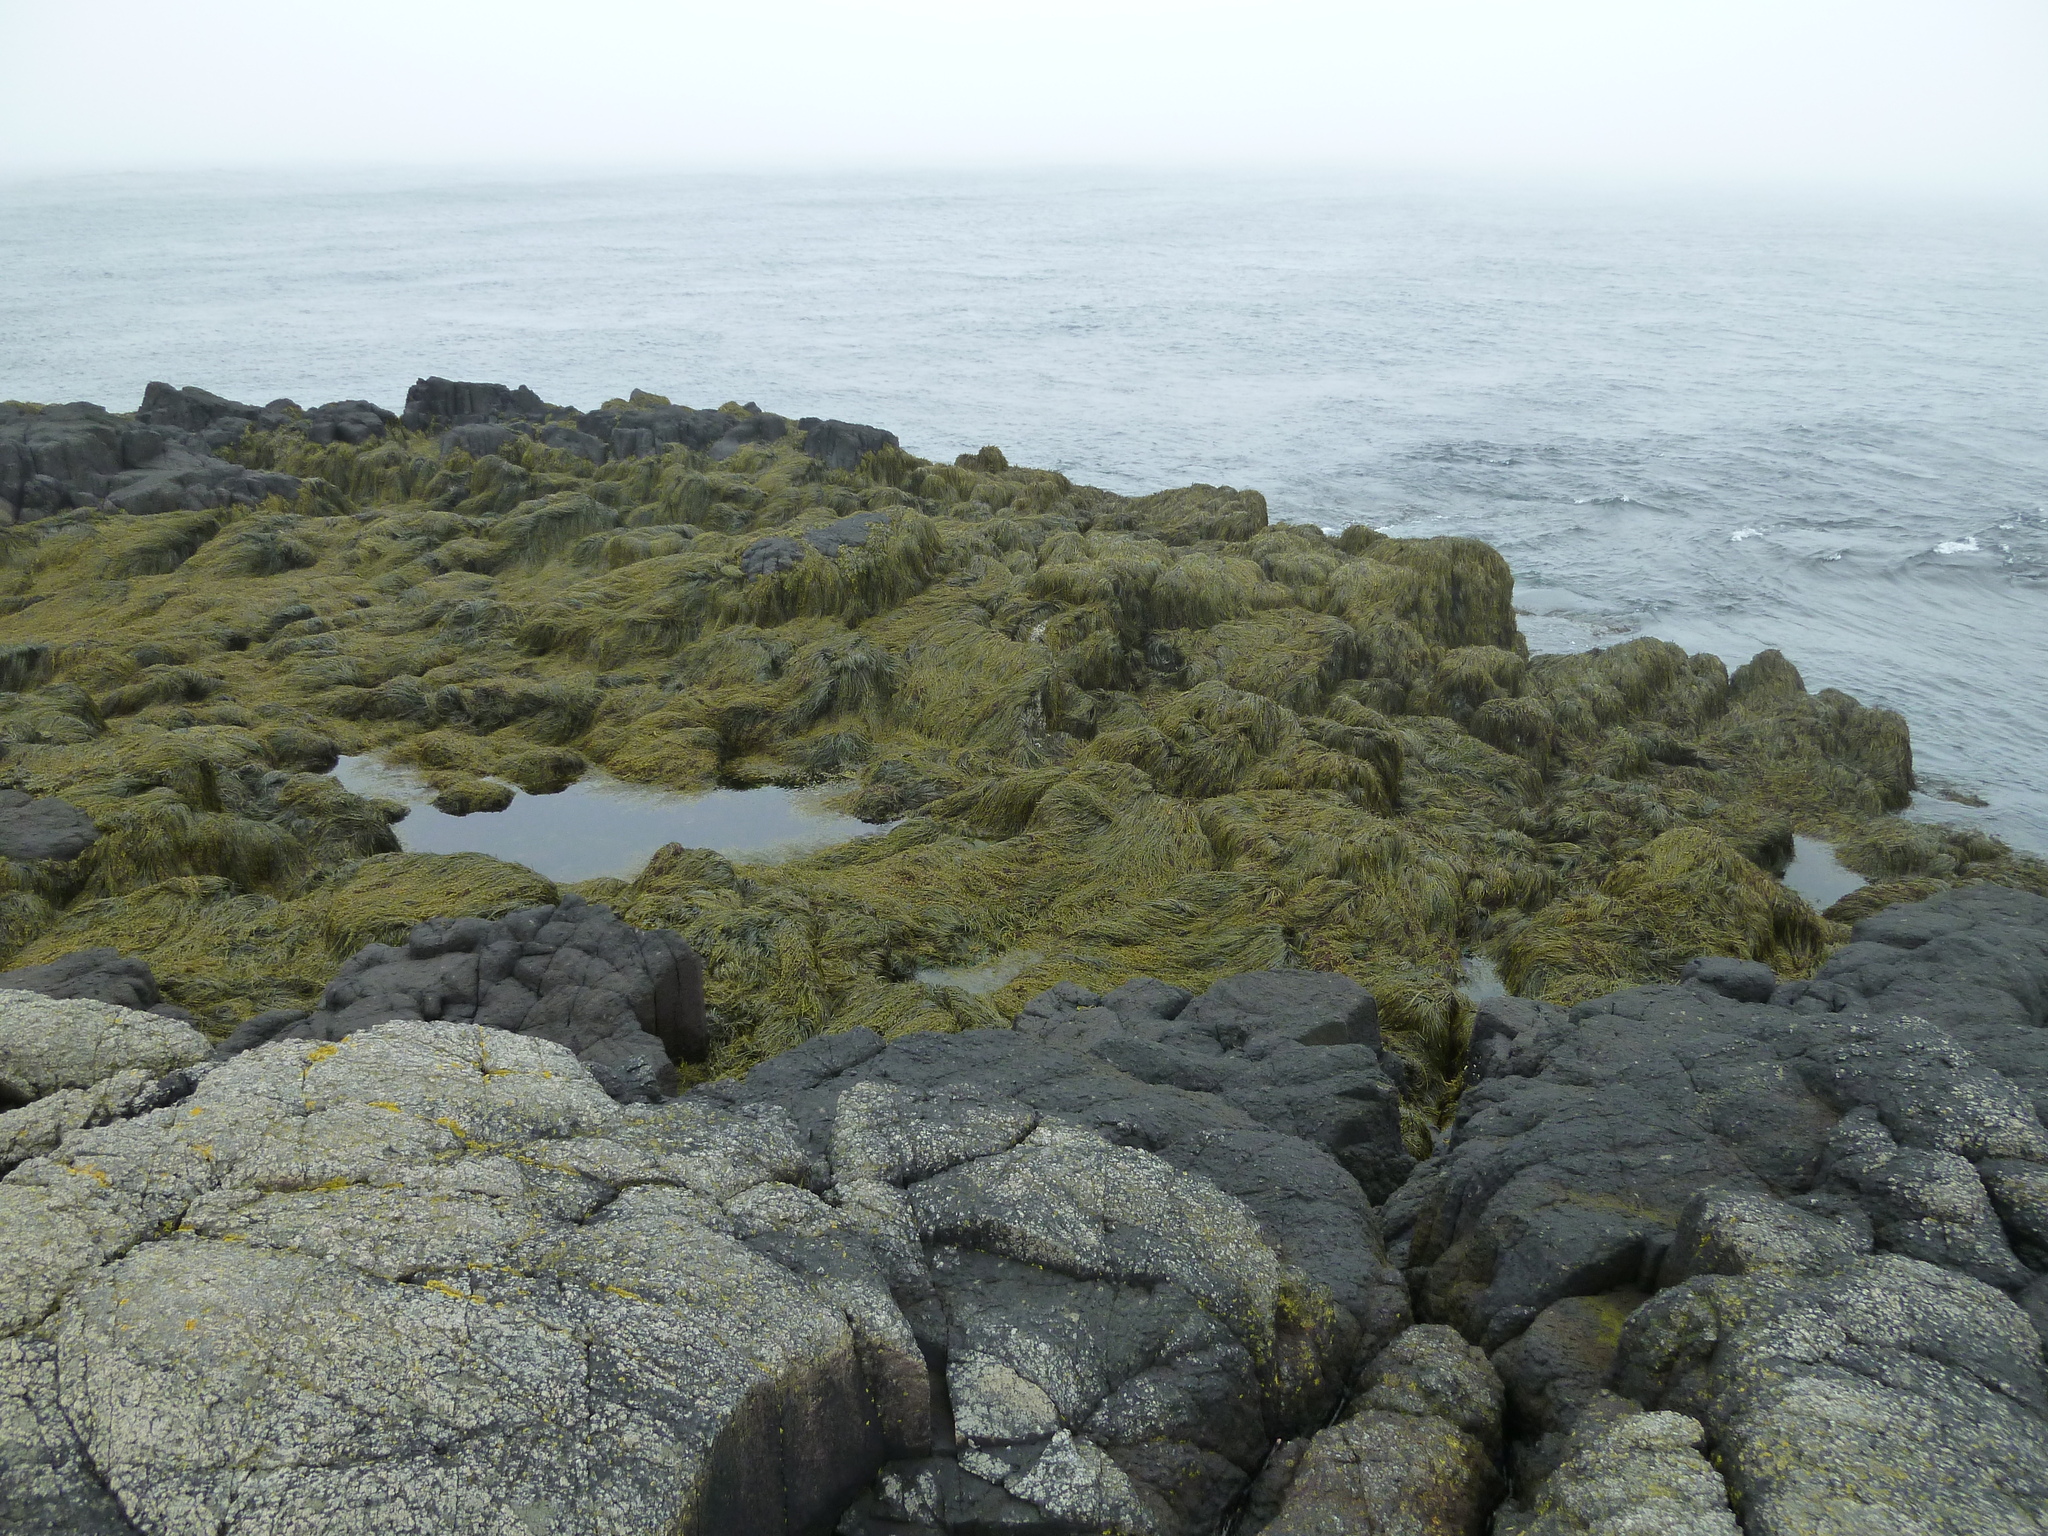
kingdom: Chromista
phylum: Ochrophyta
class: Phaeophyceae
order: Fucales
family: Fucaceae
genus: Ascophyllum
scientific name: Ascophyllum nodosum
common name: Knotted wrack
